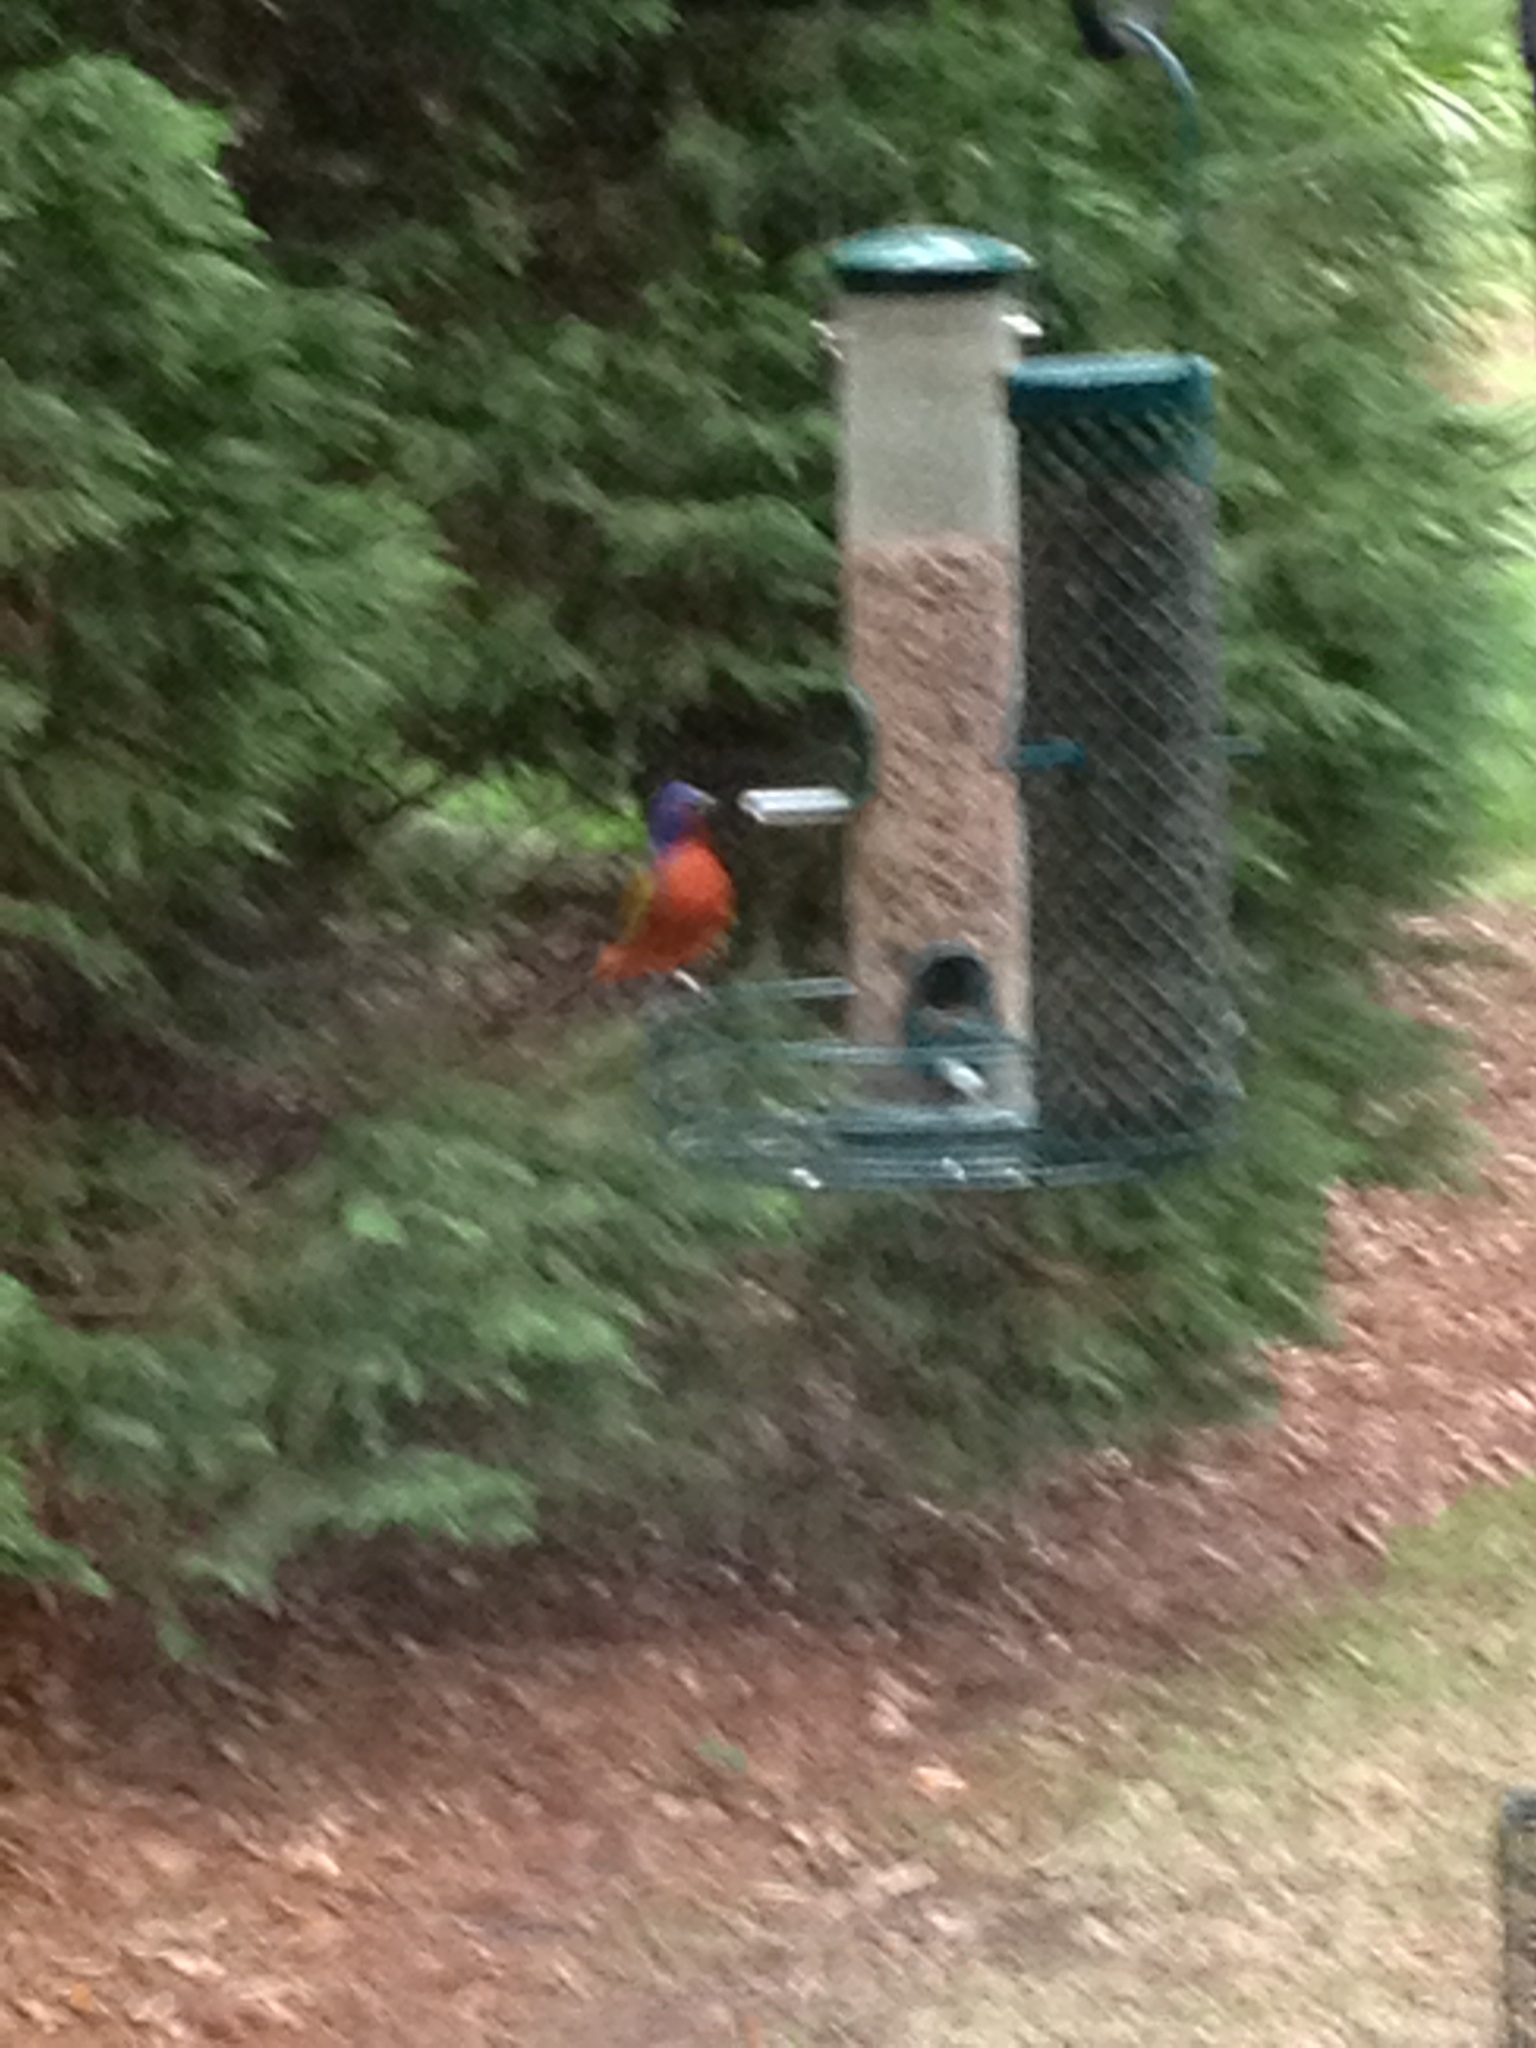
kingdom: Animalia
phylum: Chordata
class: Aves
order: Passeriformes
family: Cardinalidae
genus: Passerina
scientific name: Passerina ciris
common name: Painted bunting
